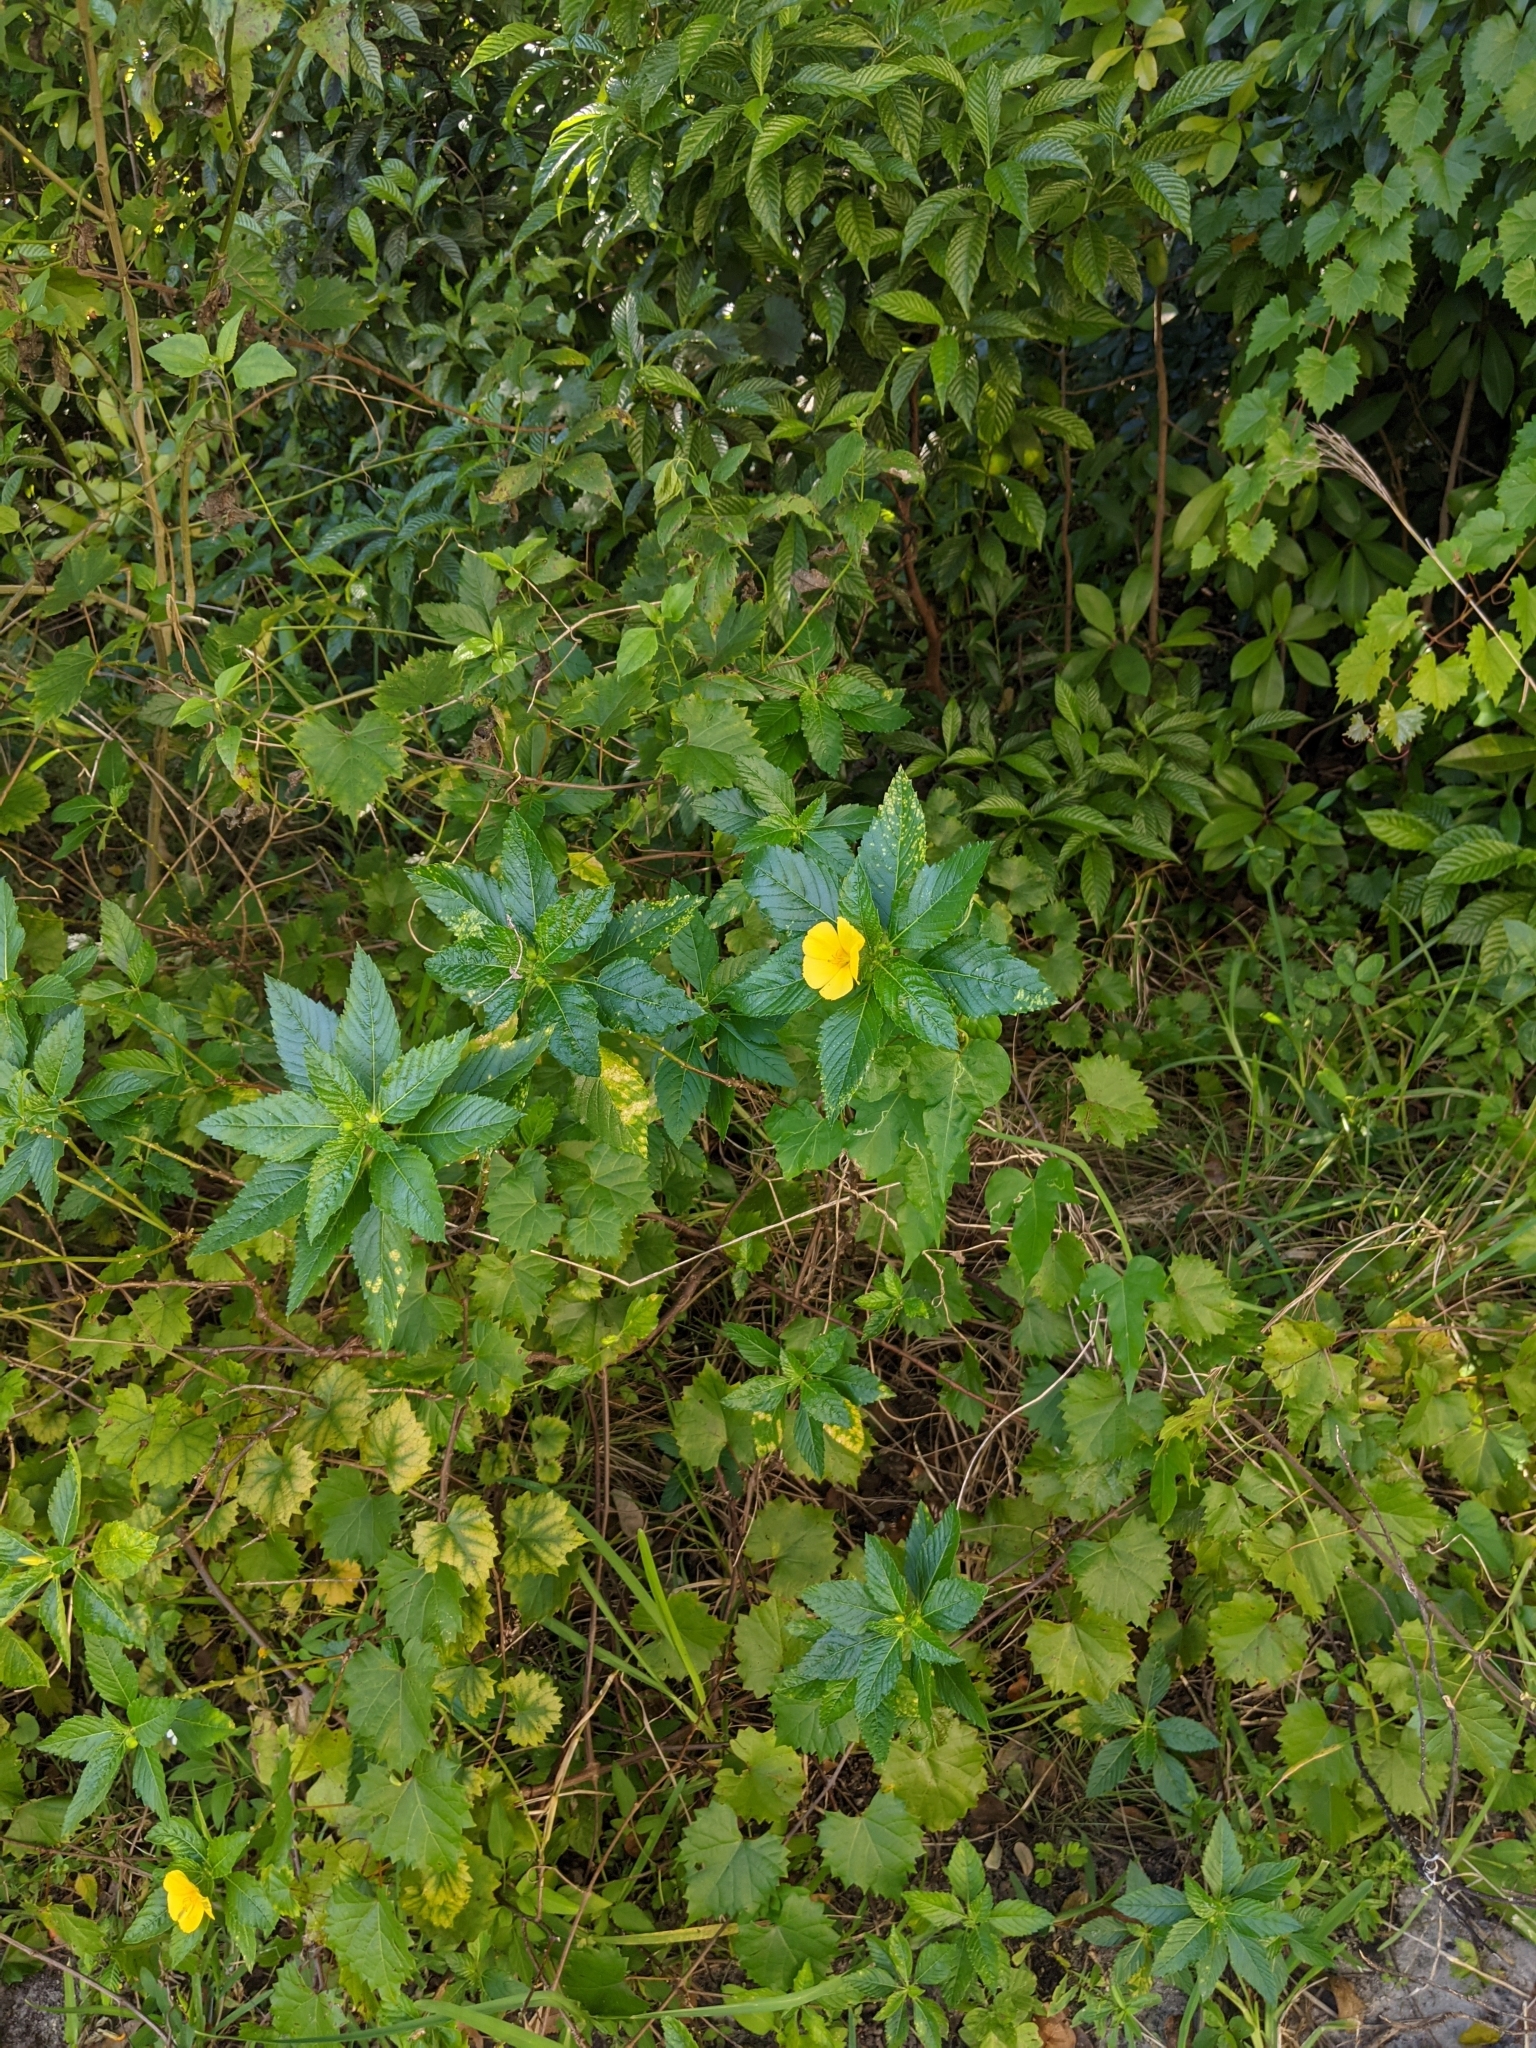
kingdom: Plantae
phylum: Tracheophyta
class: Magnoliopsida
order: Malpighiales
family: Turneraceae
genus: Turnera
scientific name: Turnera ulmifolia
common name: Ramgoat dashalong
